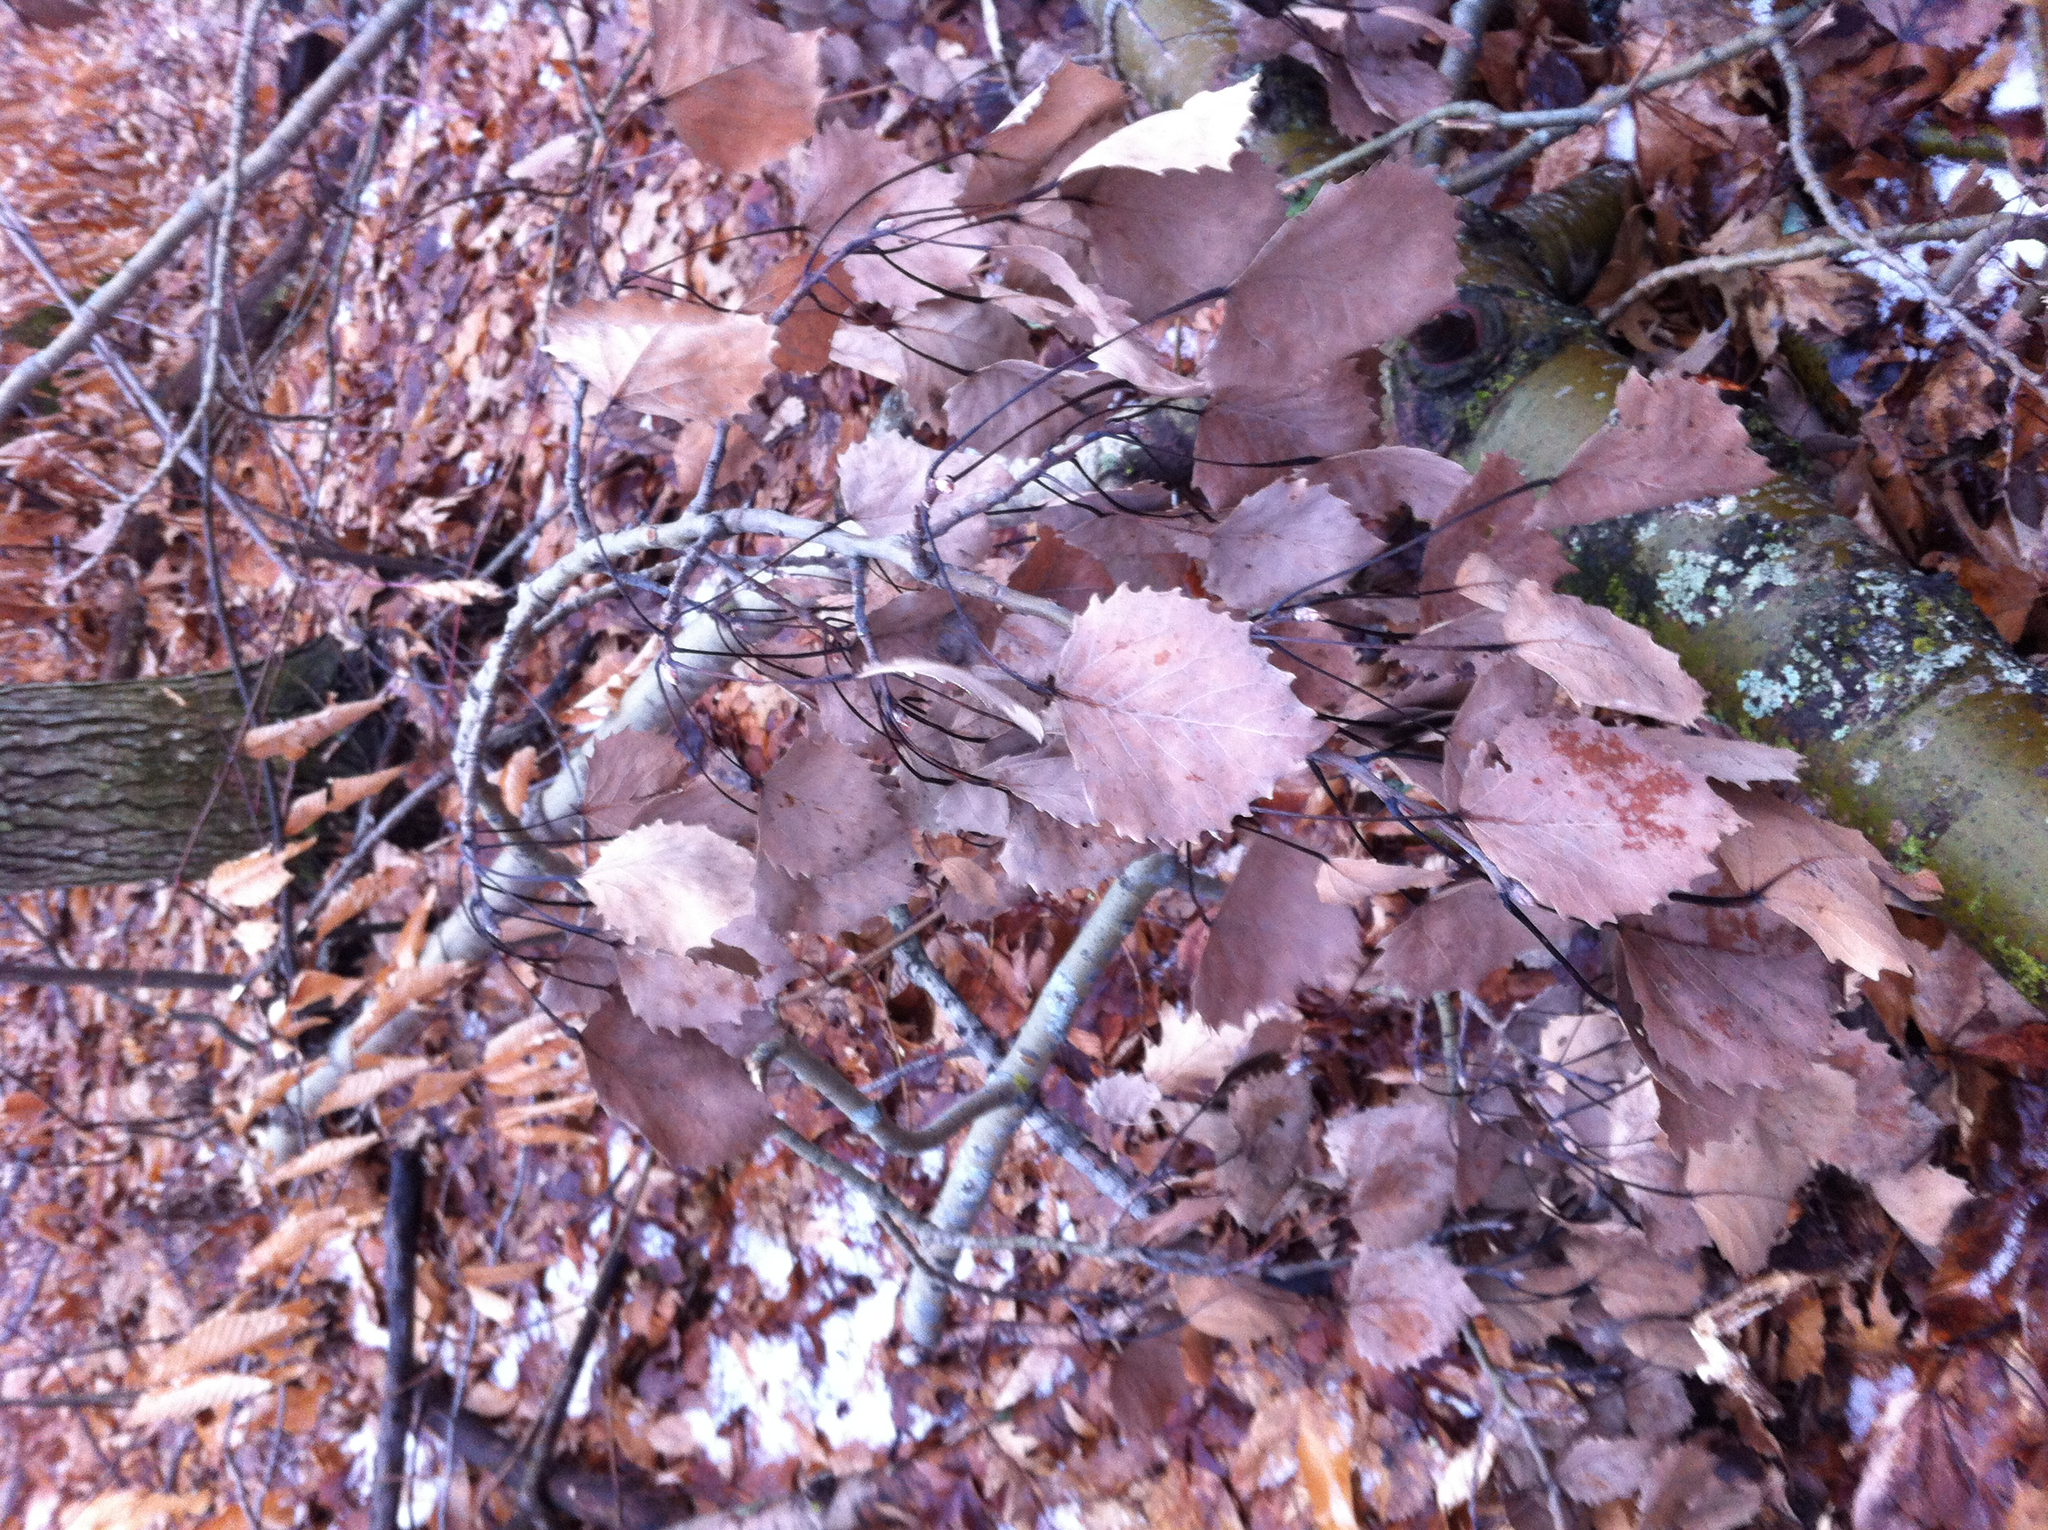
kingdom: Plantae
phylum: Tracheophyta
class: Magnoliopsida
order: Malpighiales
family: Salicaceae
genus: Populus
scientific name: Populus grandidentata
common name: Bigtooth aspen
